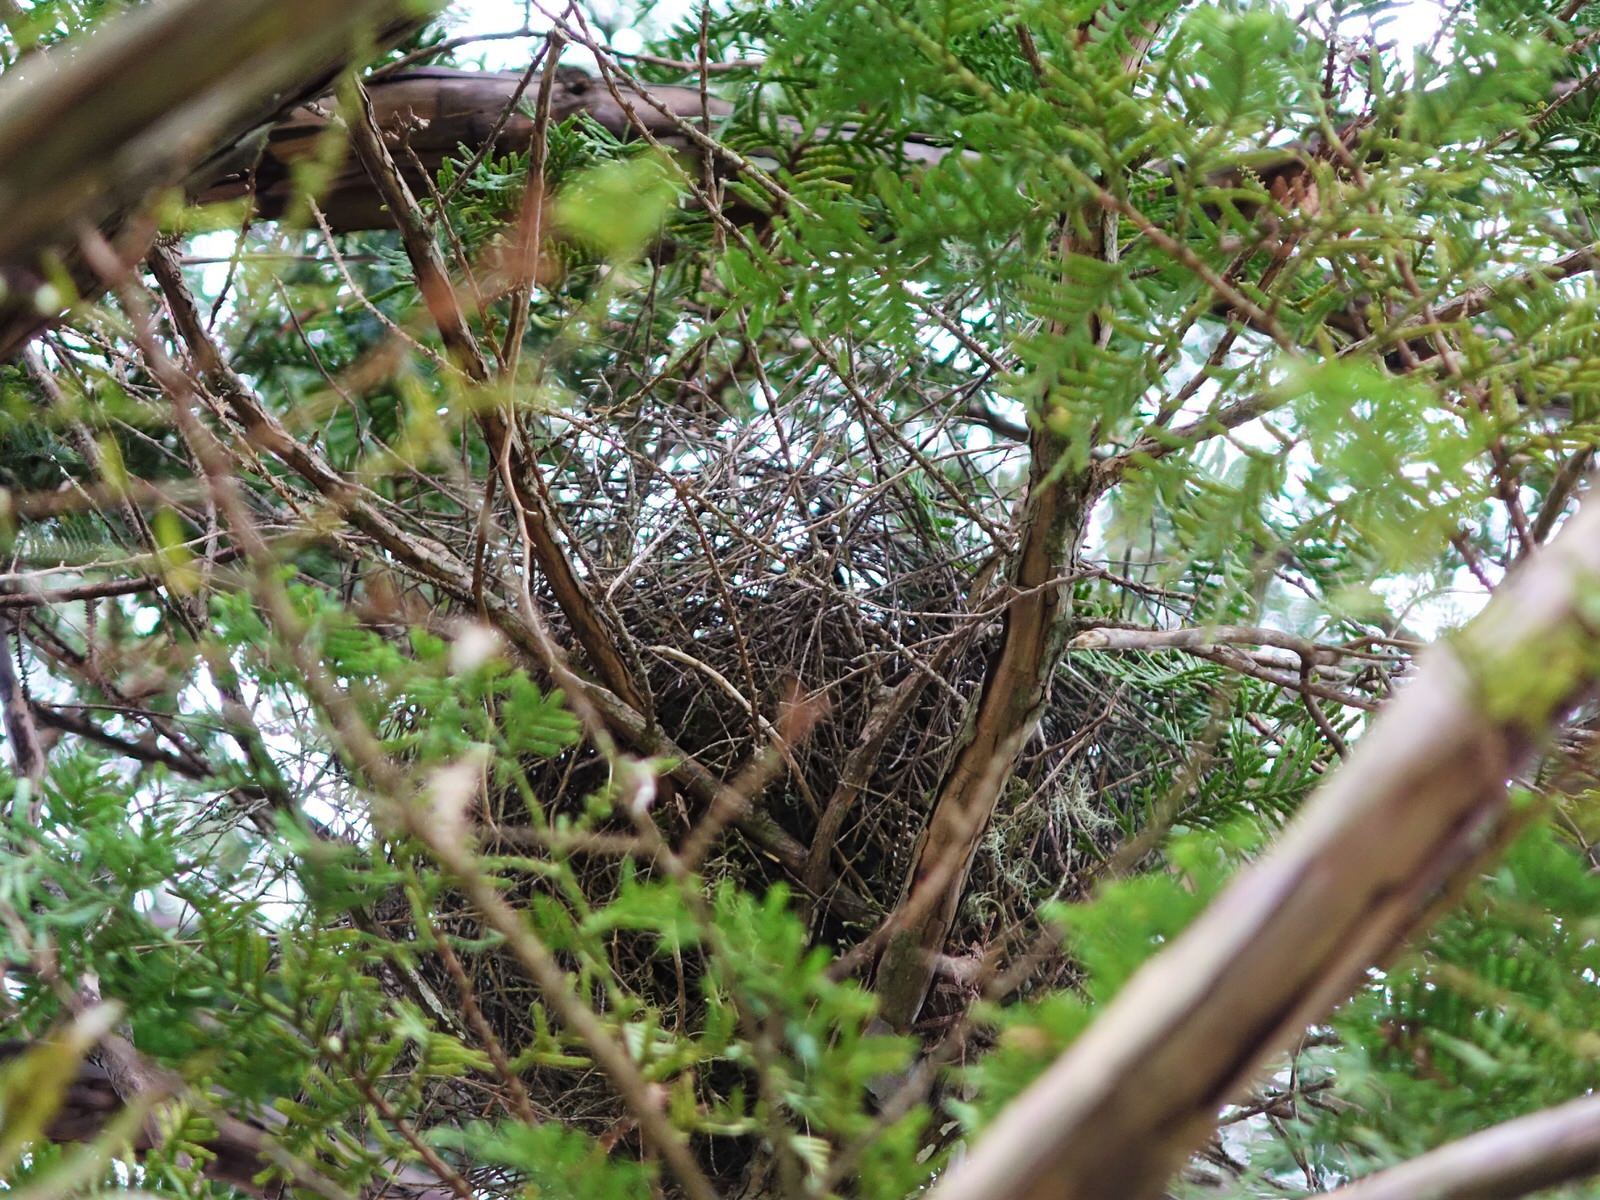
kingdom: Animalia
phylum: Chordata
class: Aves
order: Passeriformes
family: Meliphagidae
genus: Prosthemadera
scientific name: Prosthemadera novaeseelandiae
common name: Tui
